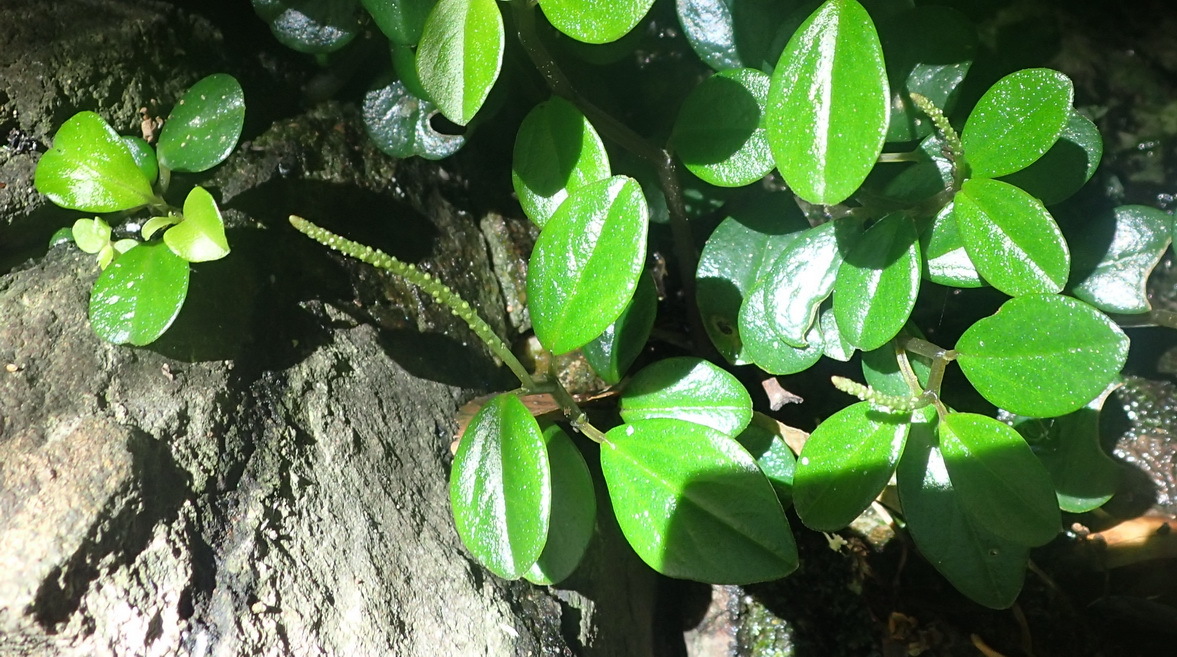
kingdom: Plantae
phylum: Tracheophyta
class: Magnoliopsida
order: Piperales
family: Piperaceae
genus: Peperomia
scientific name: Peperomia retusa
